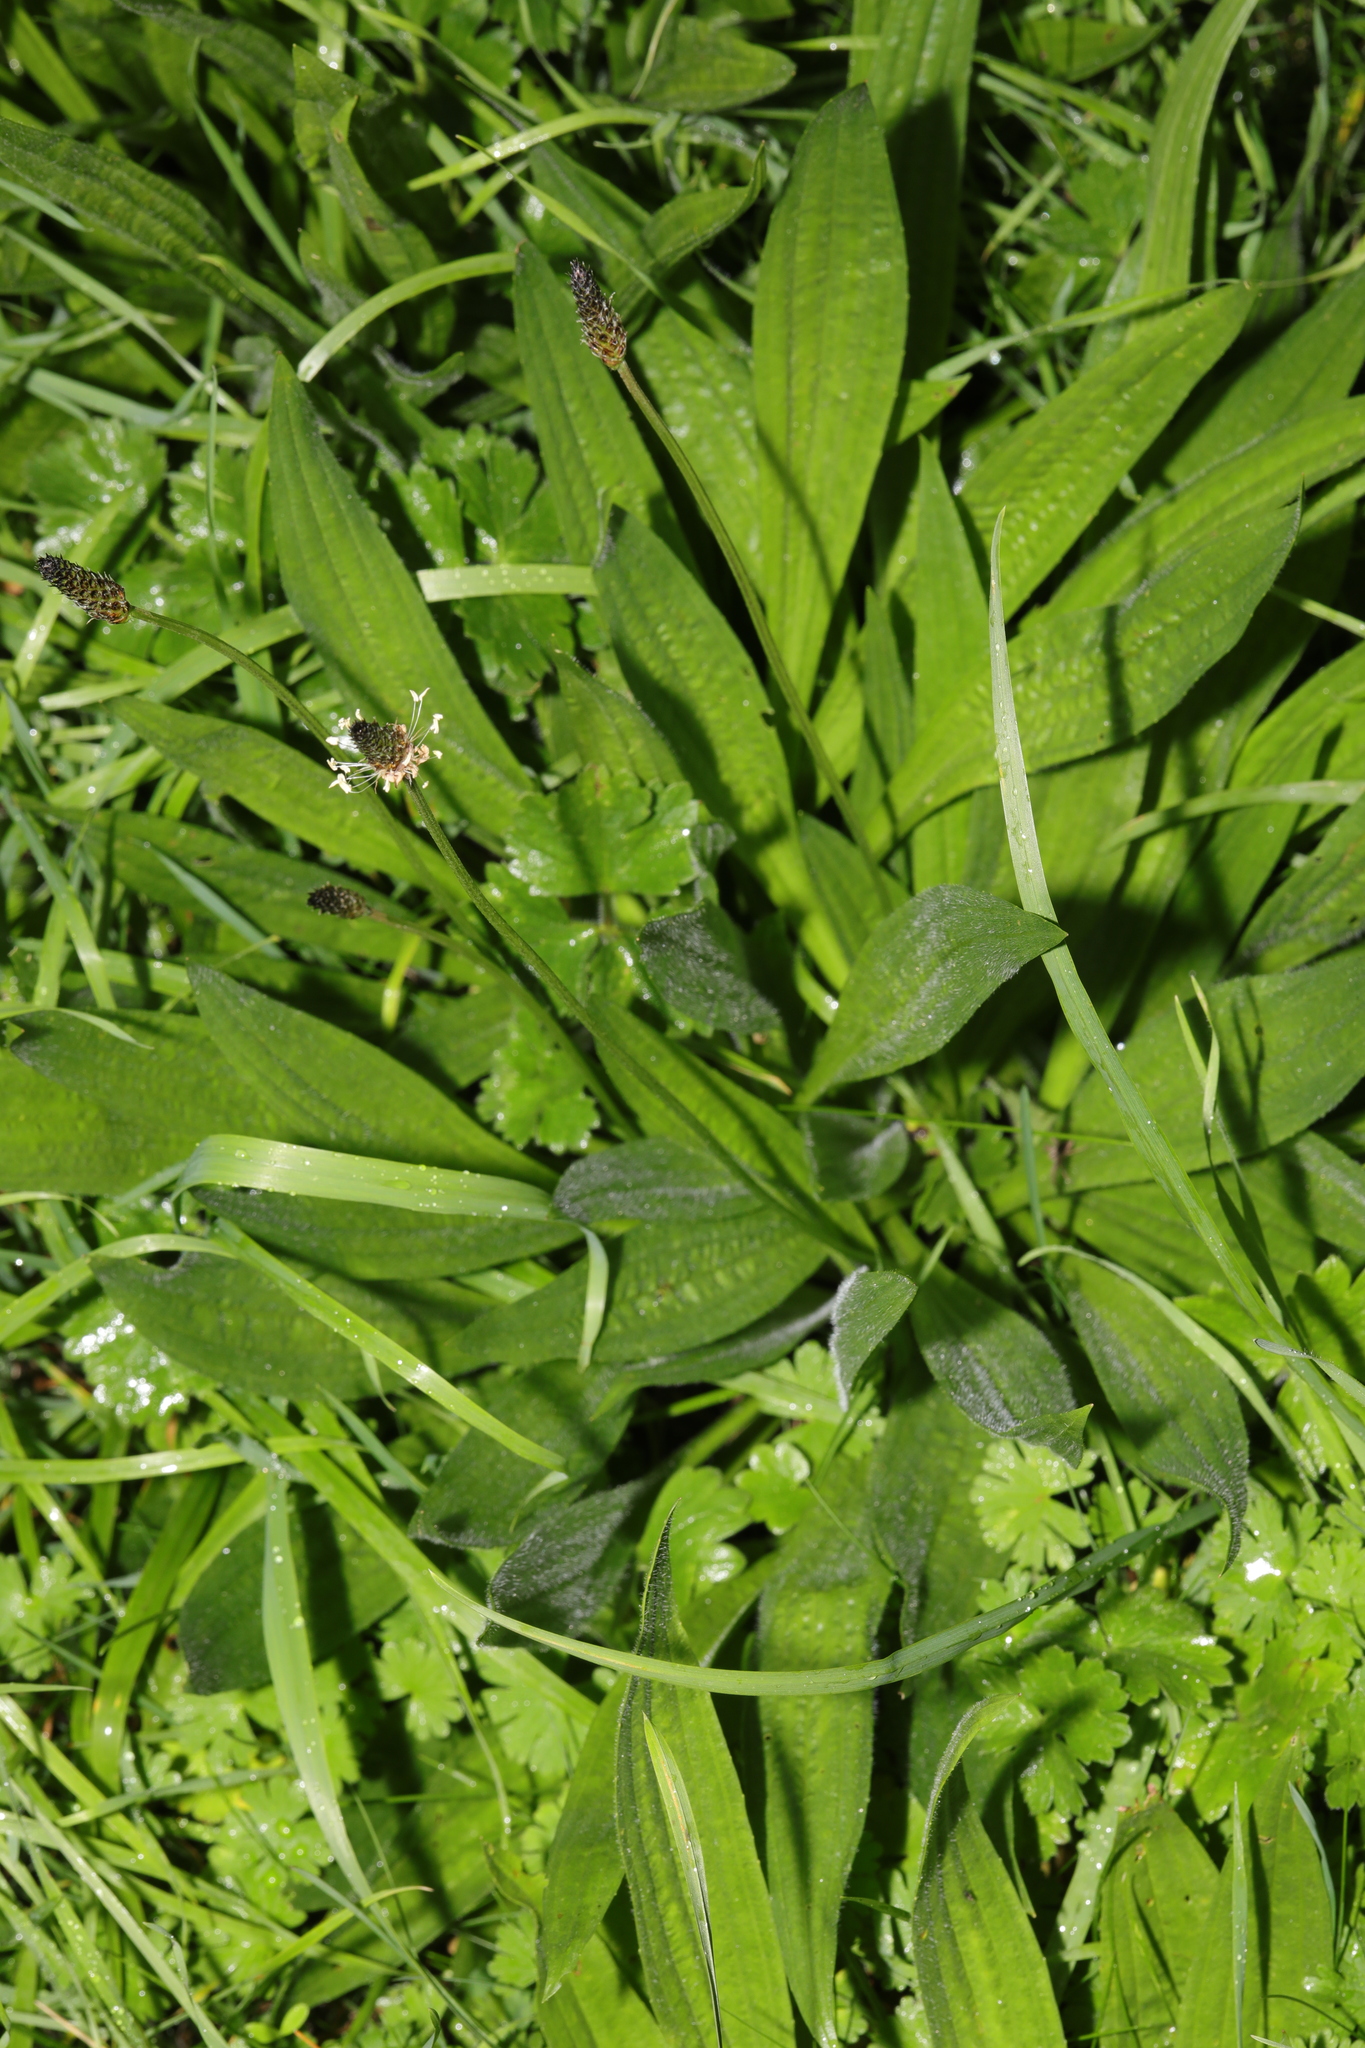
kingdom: Plantae
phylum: Tracheophyta
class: Magnoliopsida
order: Lamiales
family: Plantaginaceae
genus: Plantago
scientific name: Plantago lanceolata
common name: Ribwort plantain
